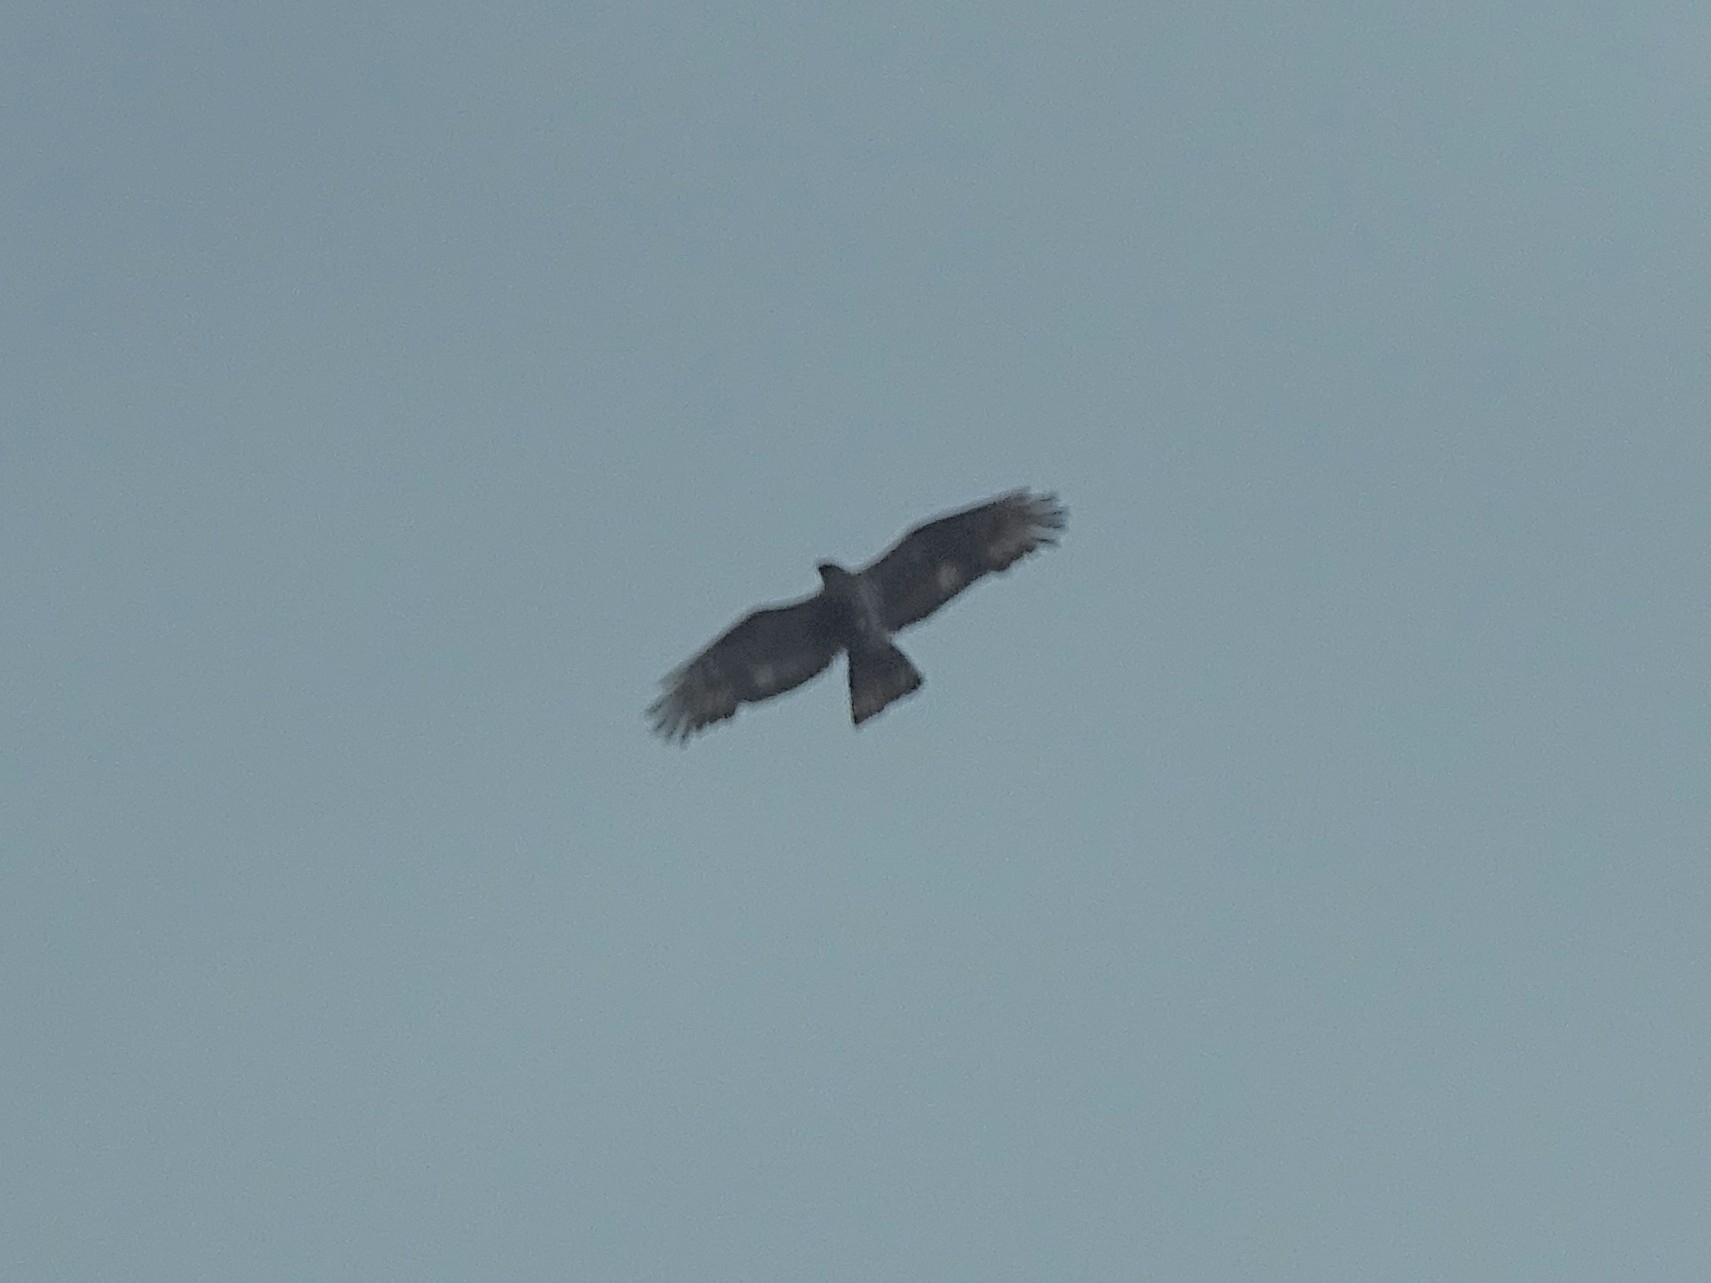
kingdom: Animalia
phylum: Chordata
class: Aves
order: Accipitriformes
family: Accipitridae
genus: Pernis
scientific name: Pernis apivorus
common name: European honey buzzard
